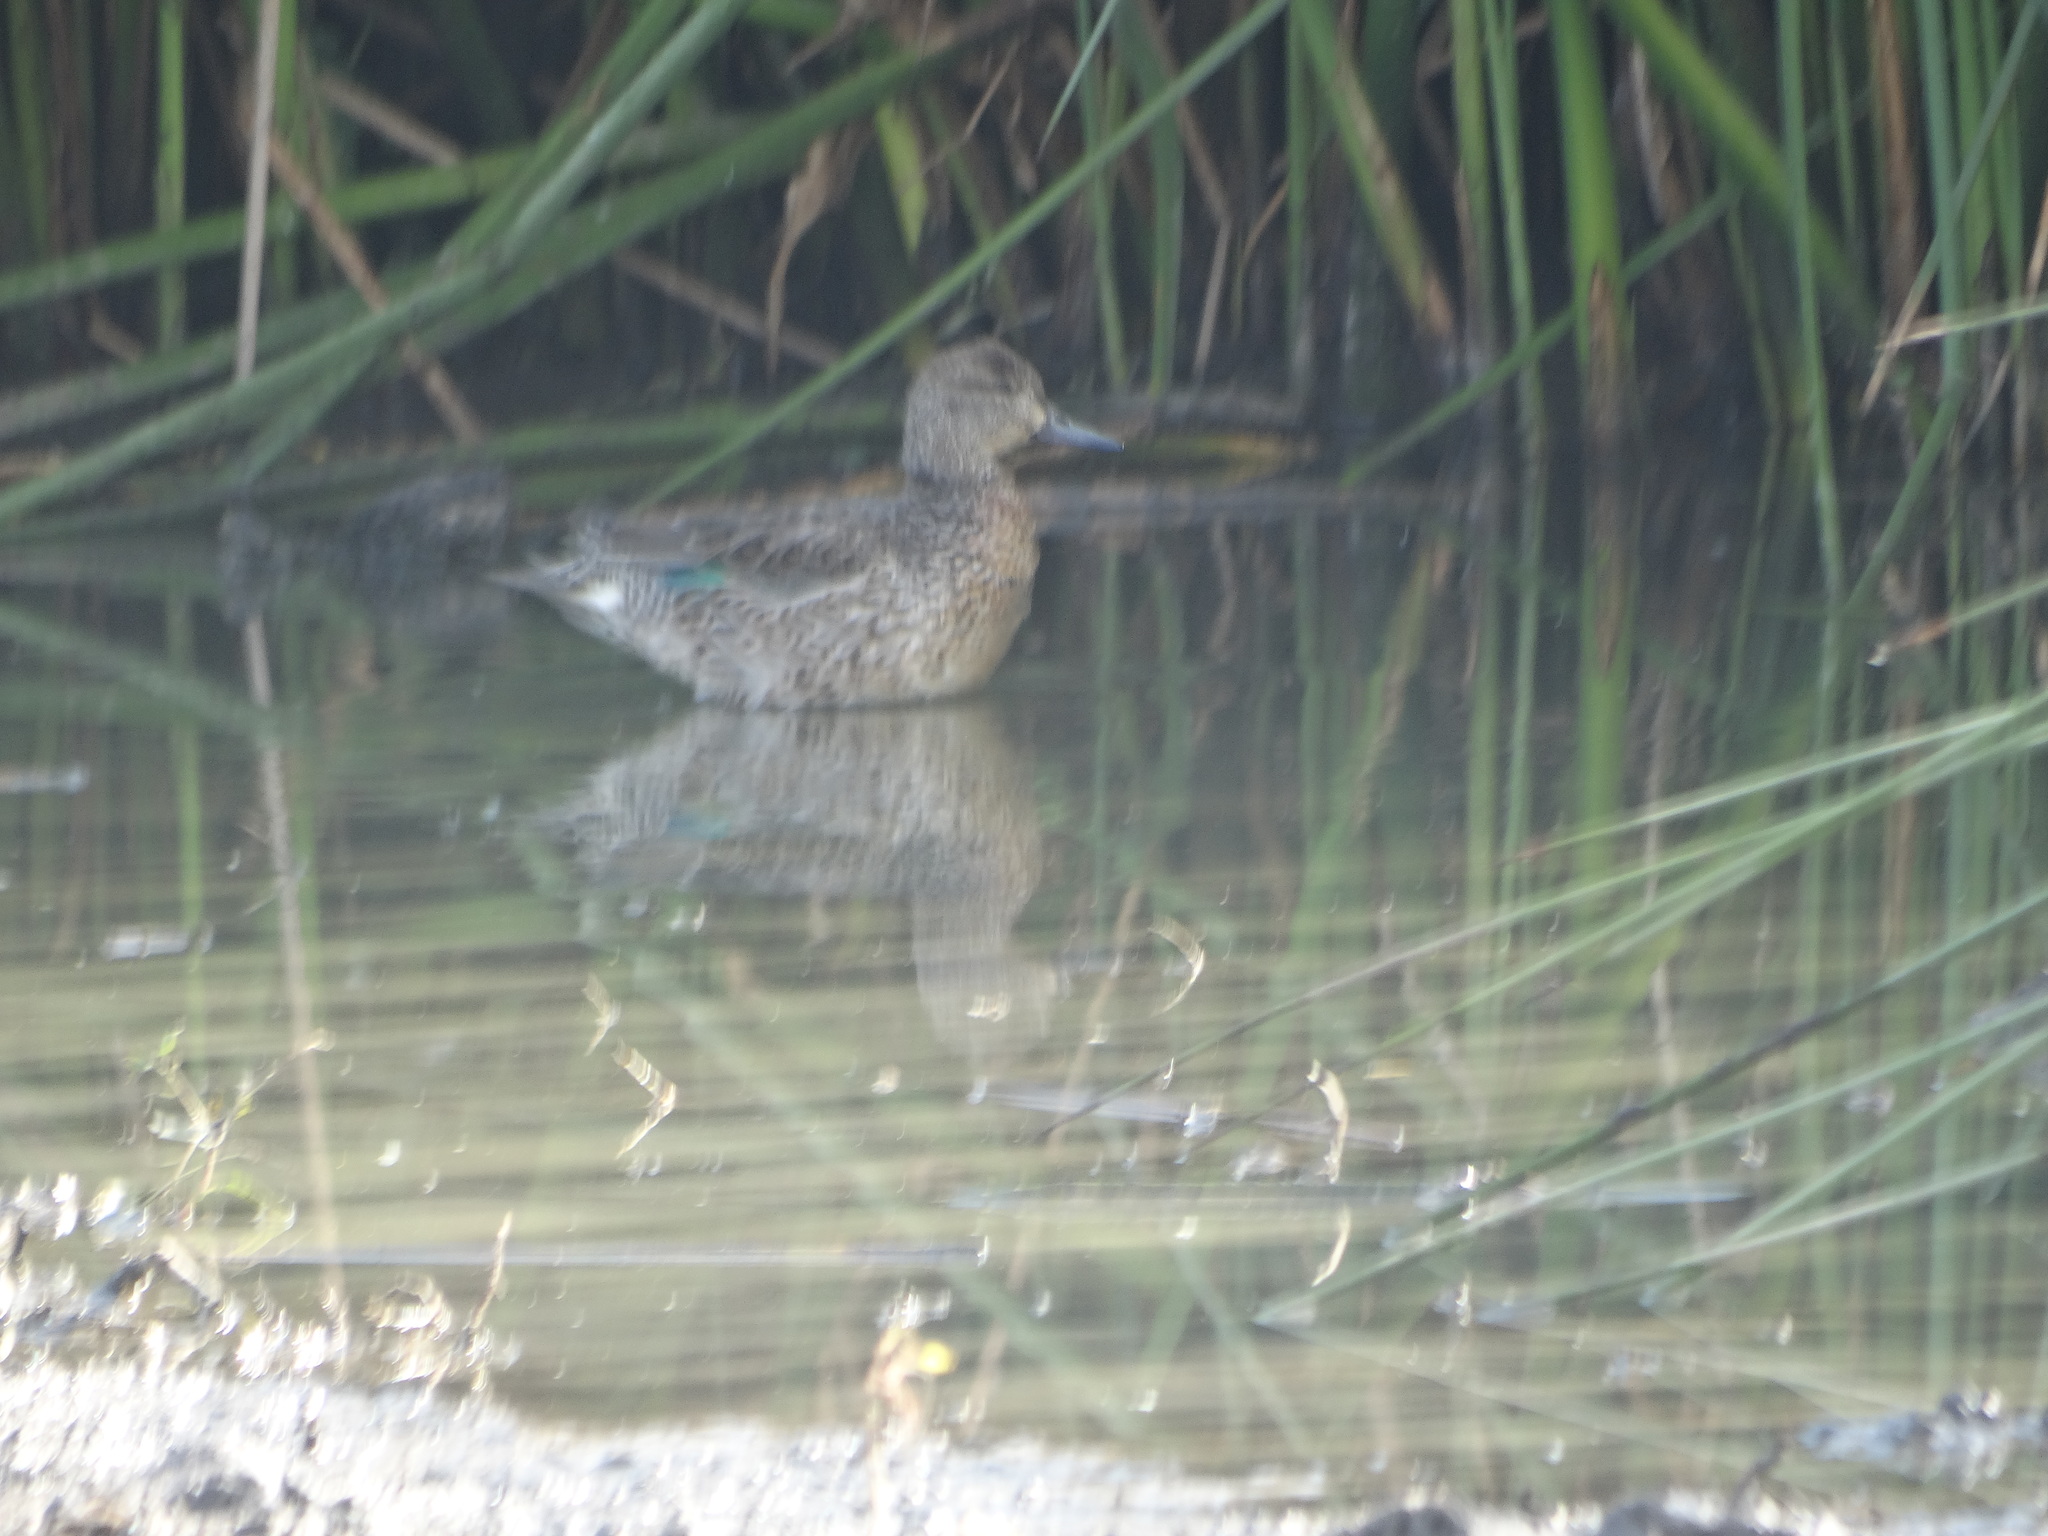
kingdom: Animalia
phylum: Chordata
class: Aves
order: Anseriformes
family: Anatidae
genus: Anas
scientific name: Anas carolinensis
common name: Green-winged teal
